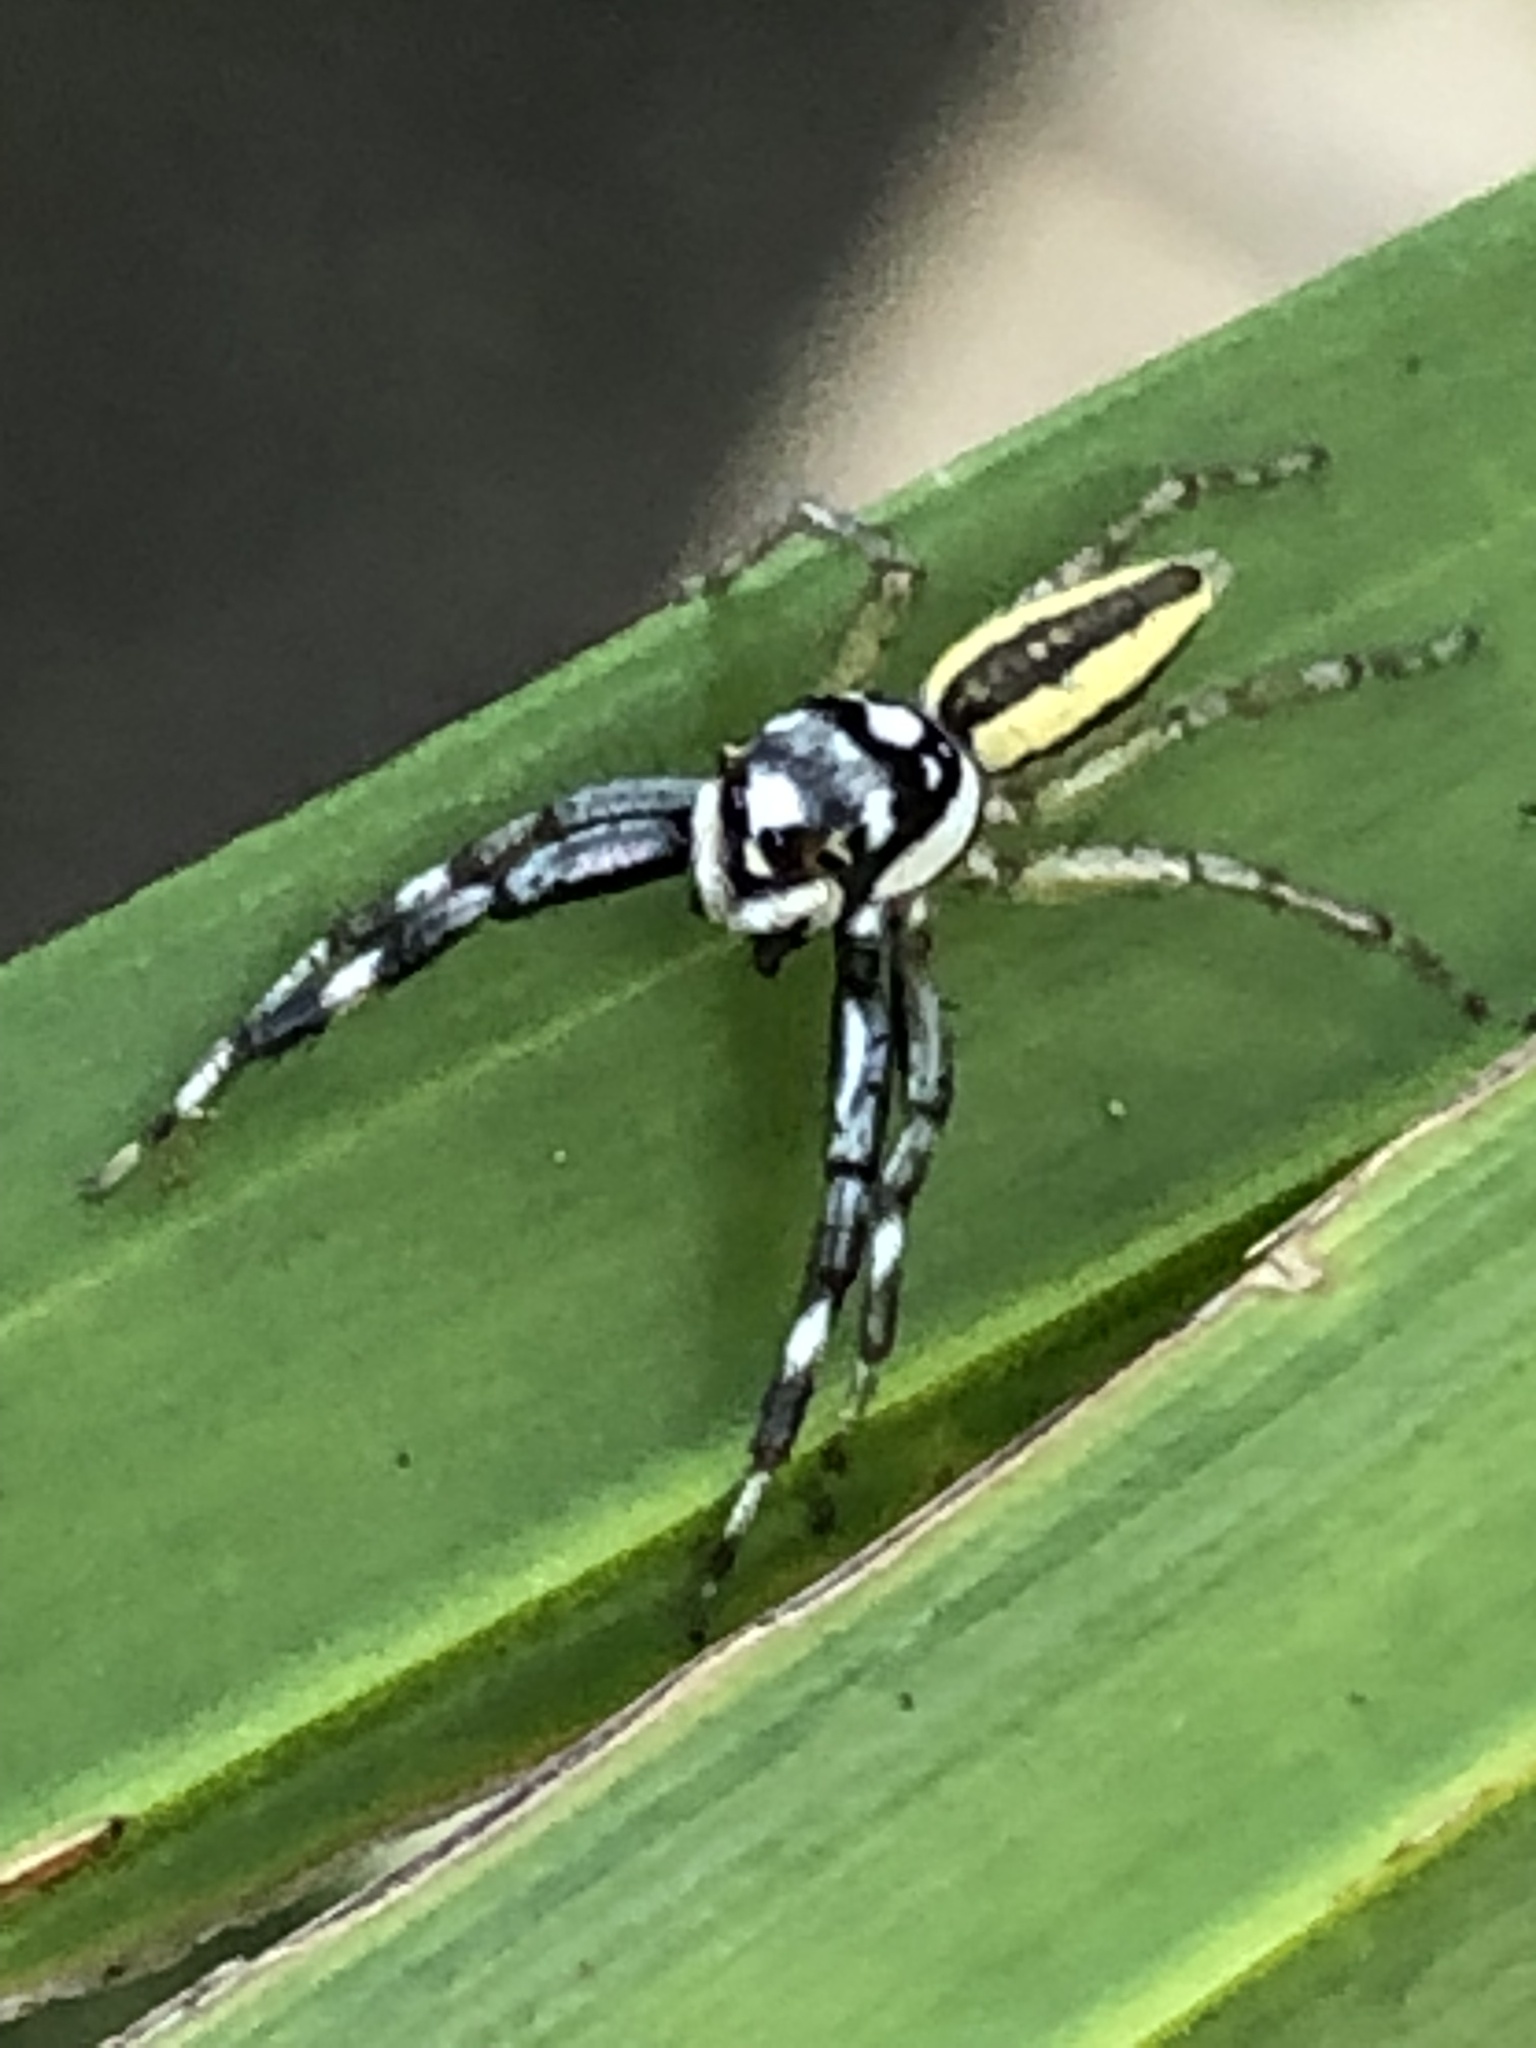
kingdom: Animalia
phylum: Arthropoda
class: Arachnida
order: Araneae
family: Salticidae
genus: Phintelloides
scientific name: Phintelloides versicolor
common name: Jumping spider
